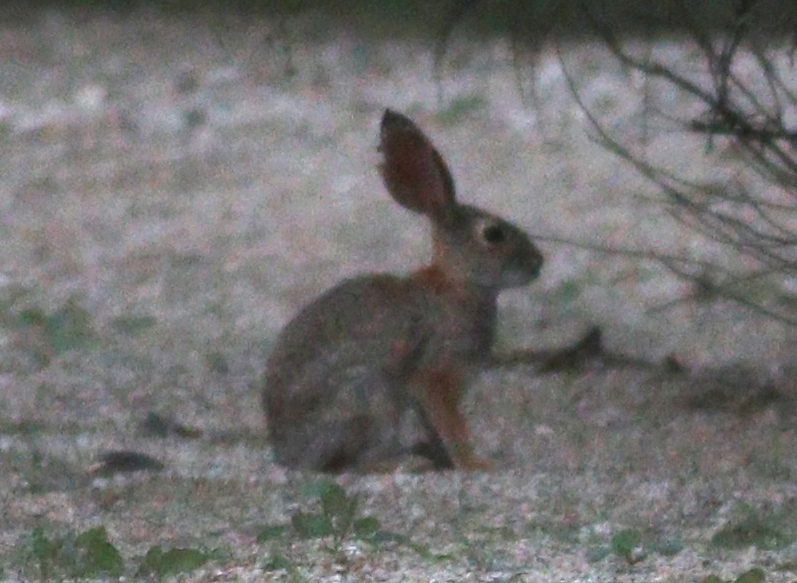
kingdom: Animalia
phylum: Chordata
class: Mammalia
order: Lagomorpha
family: Leporidae
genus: Sylvilagus
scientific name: Sylvilagus audubonii
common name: Desert cottontail
